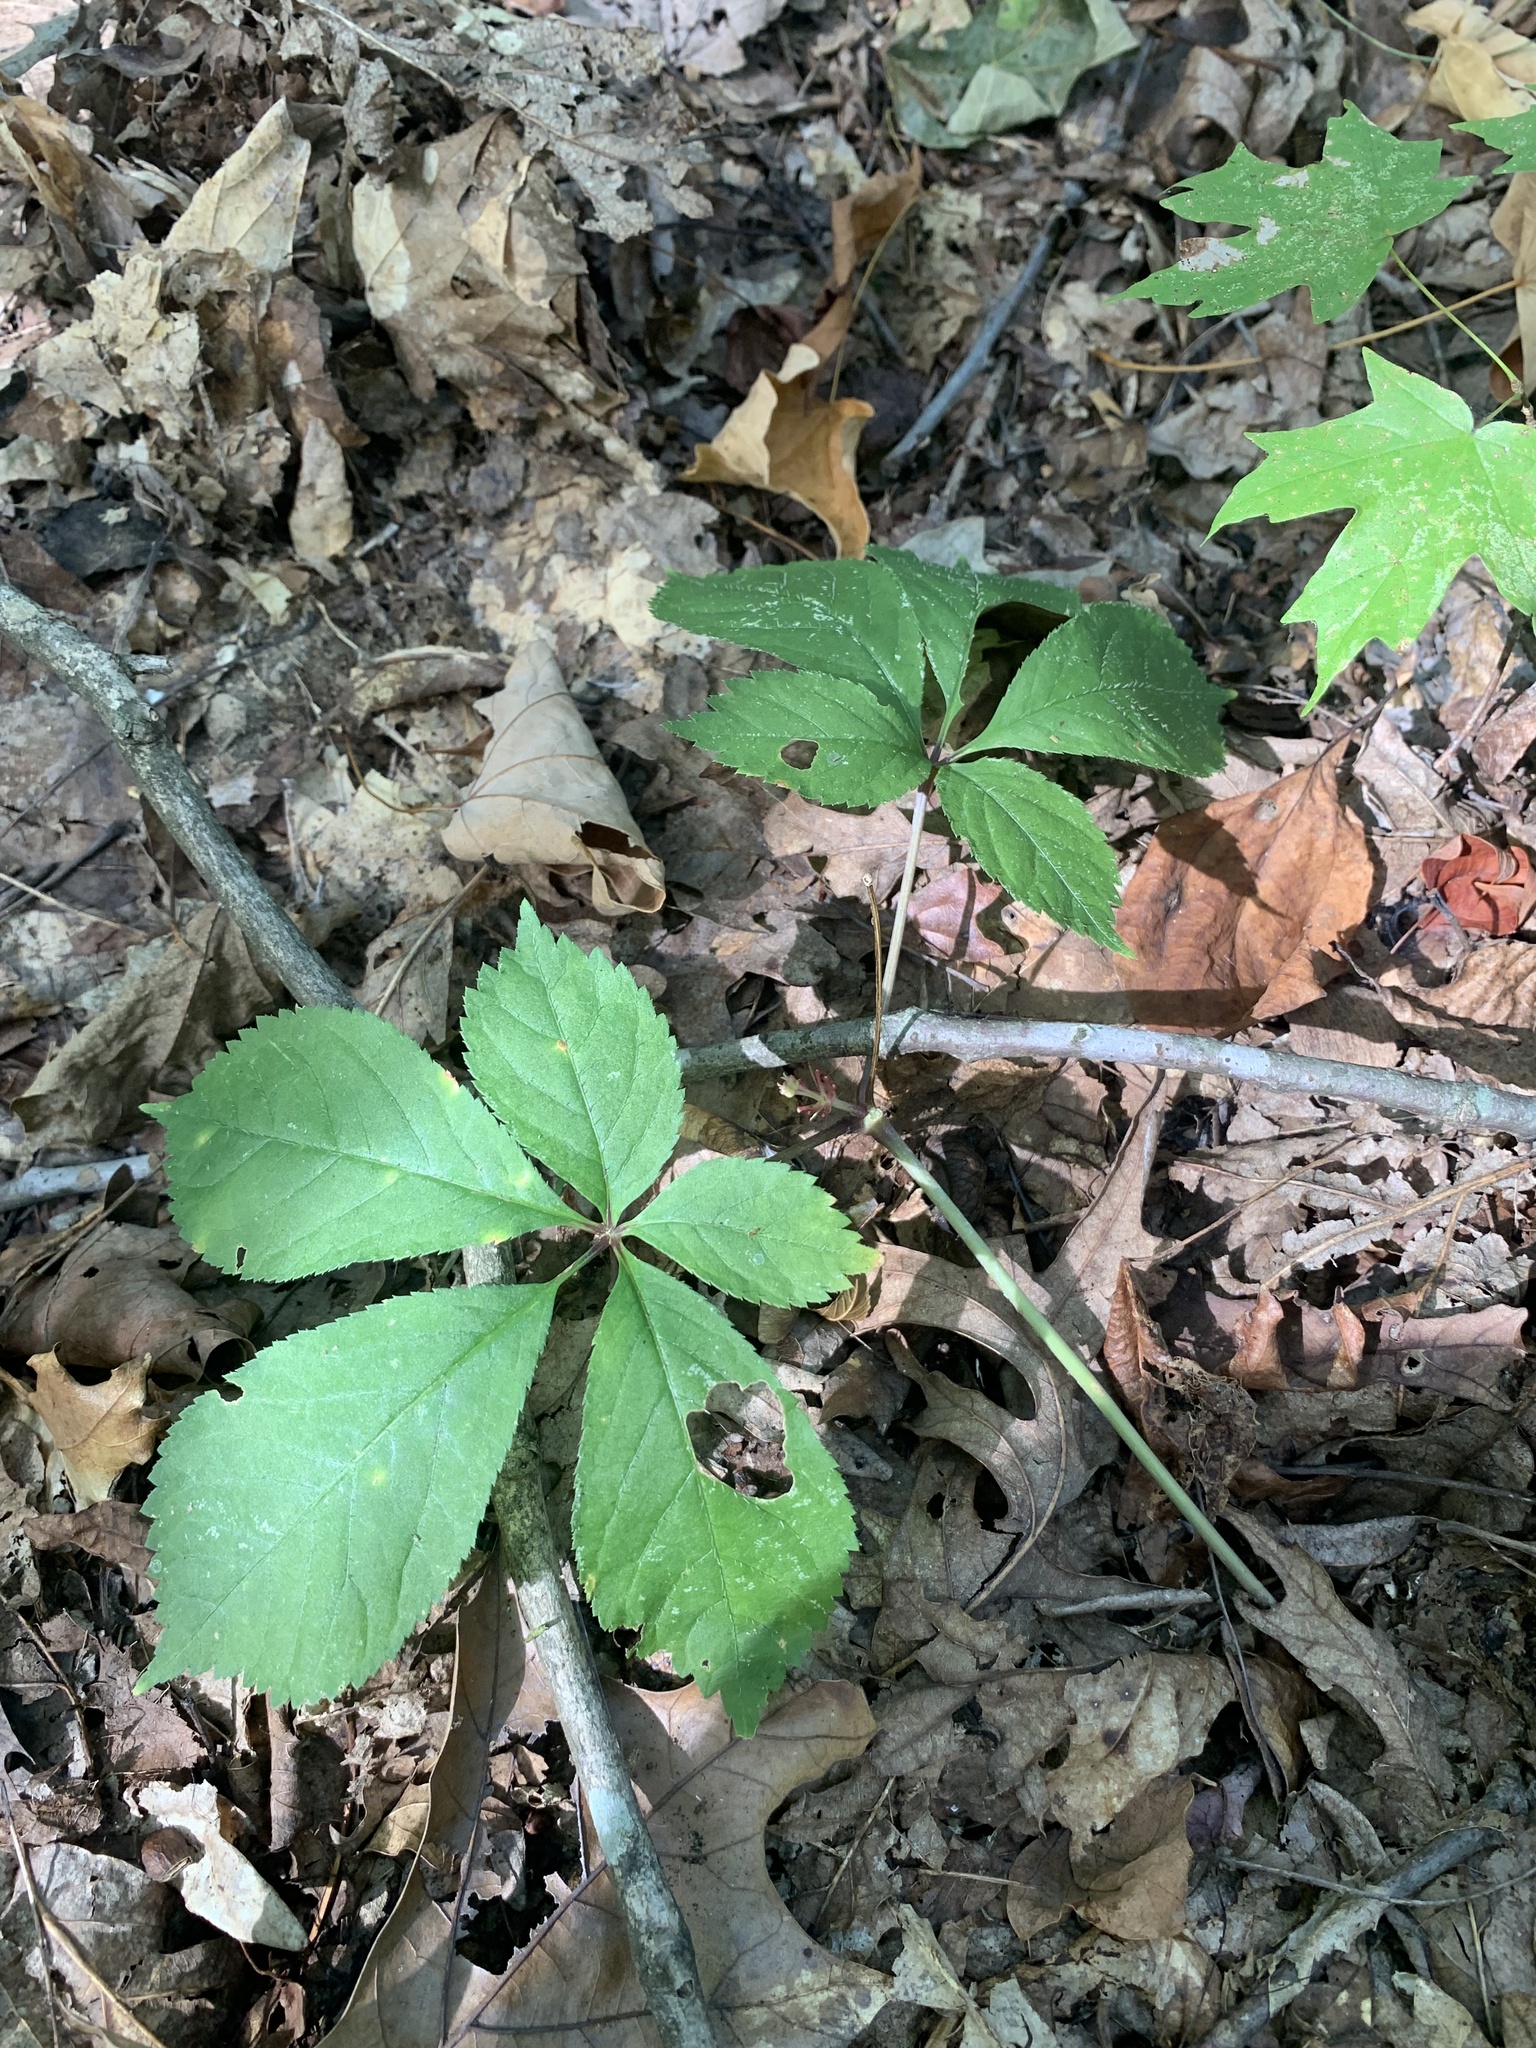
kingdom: Plantae
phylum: Tracheophyta
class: Magnoliopsida
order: Apiales
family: Araliaceae
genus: Panax
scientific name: Panax quinquefolius
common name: American ginseng
